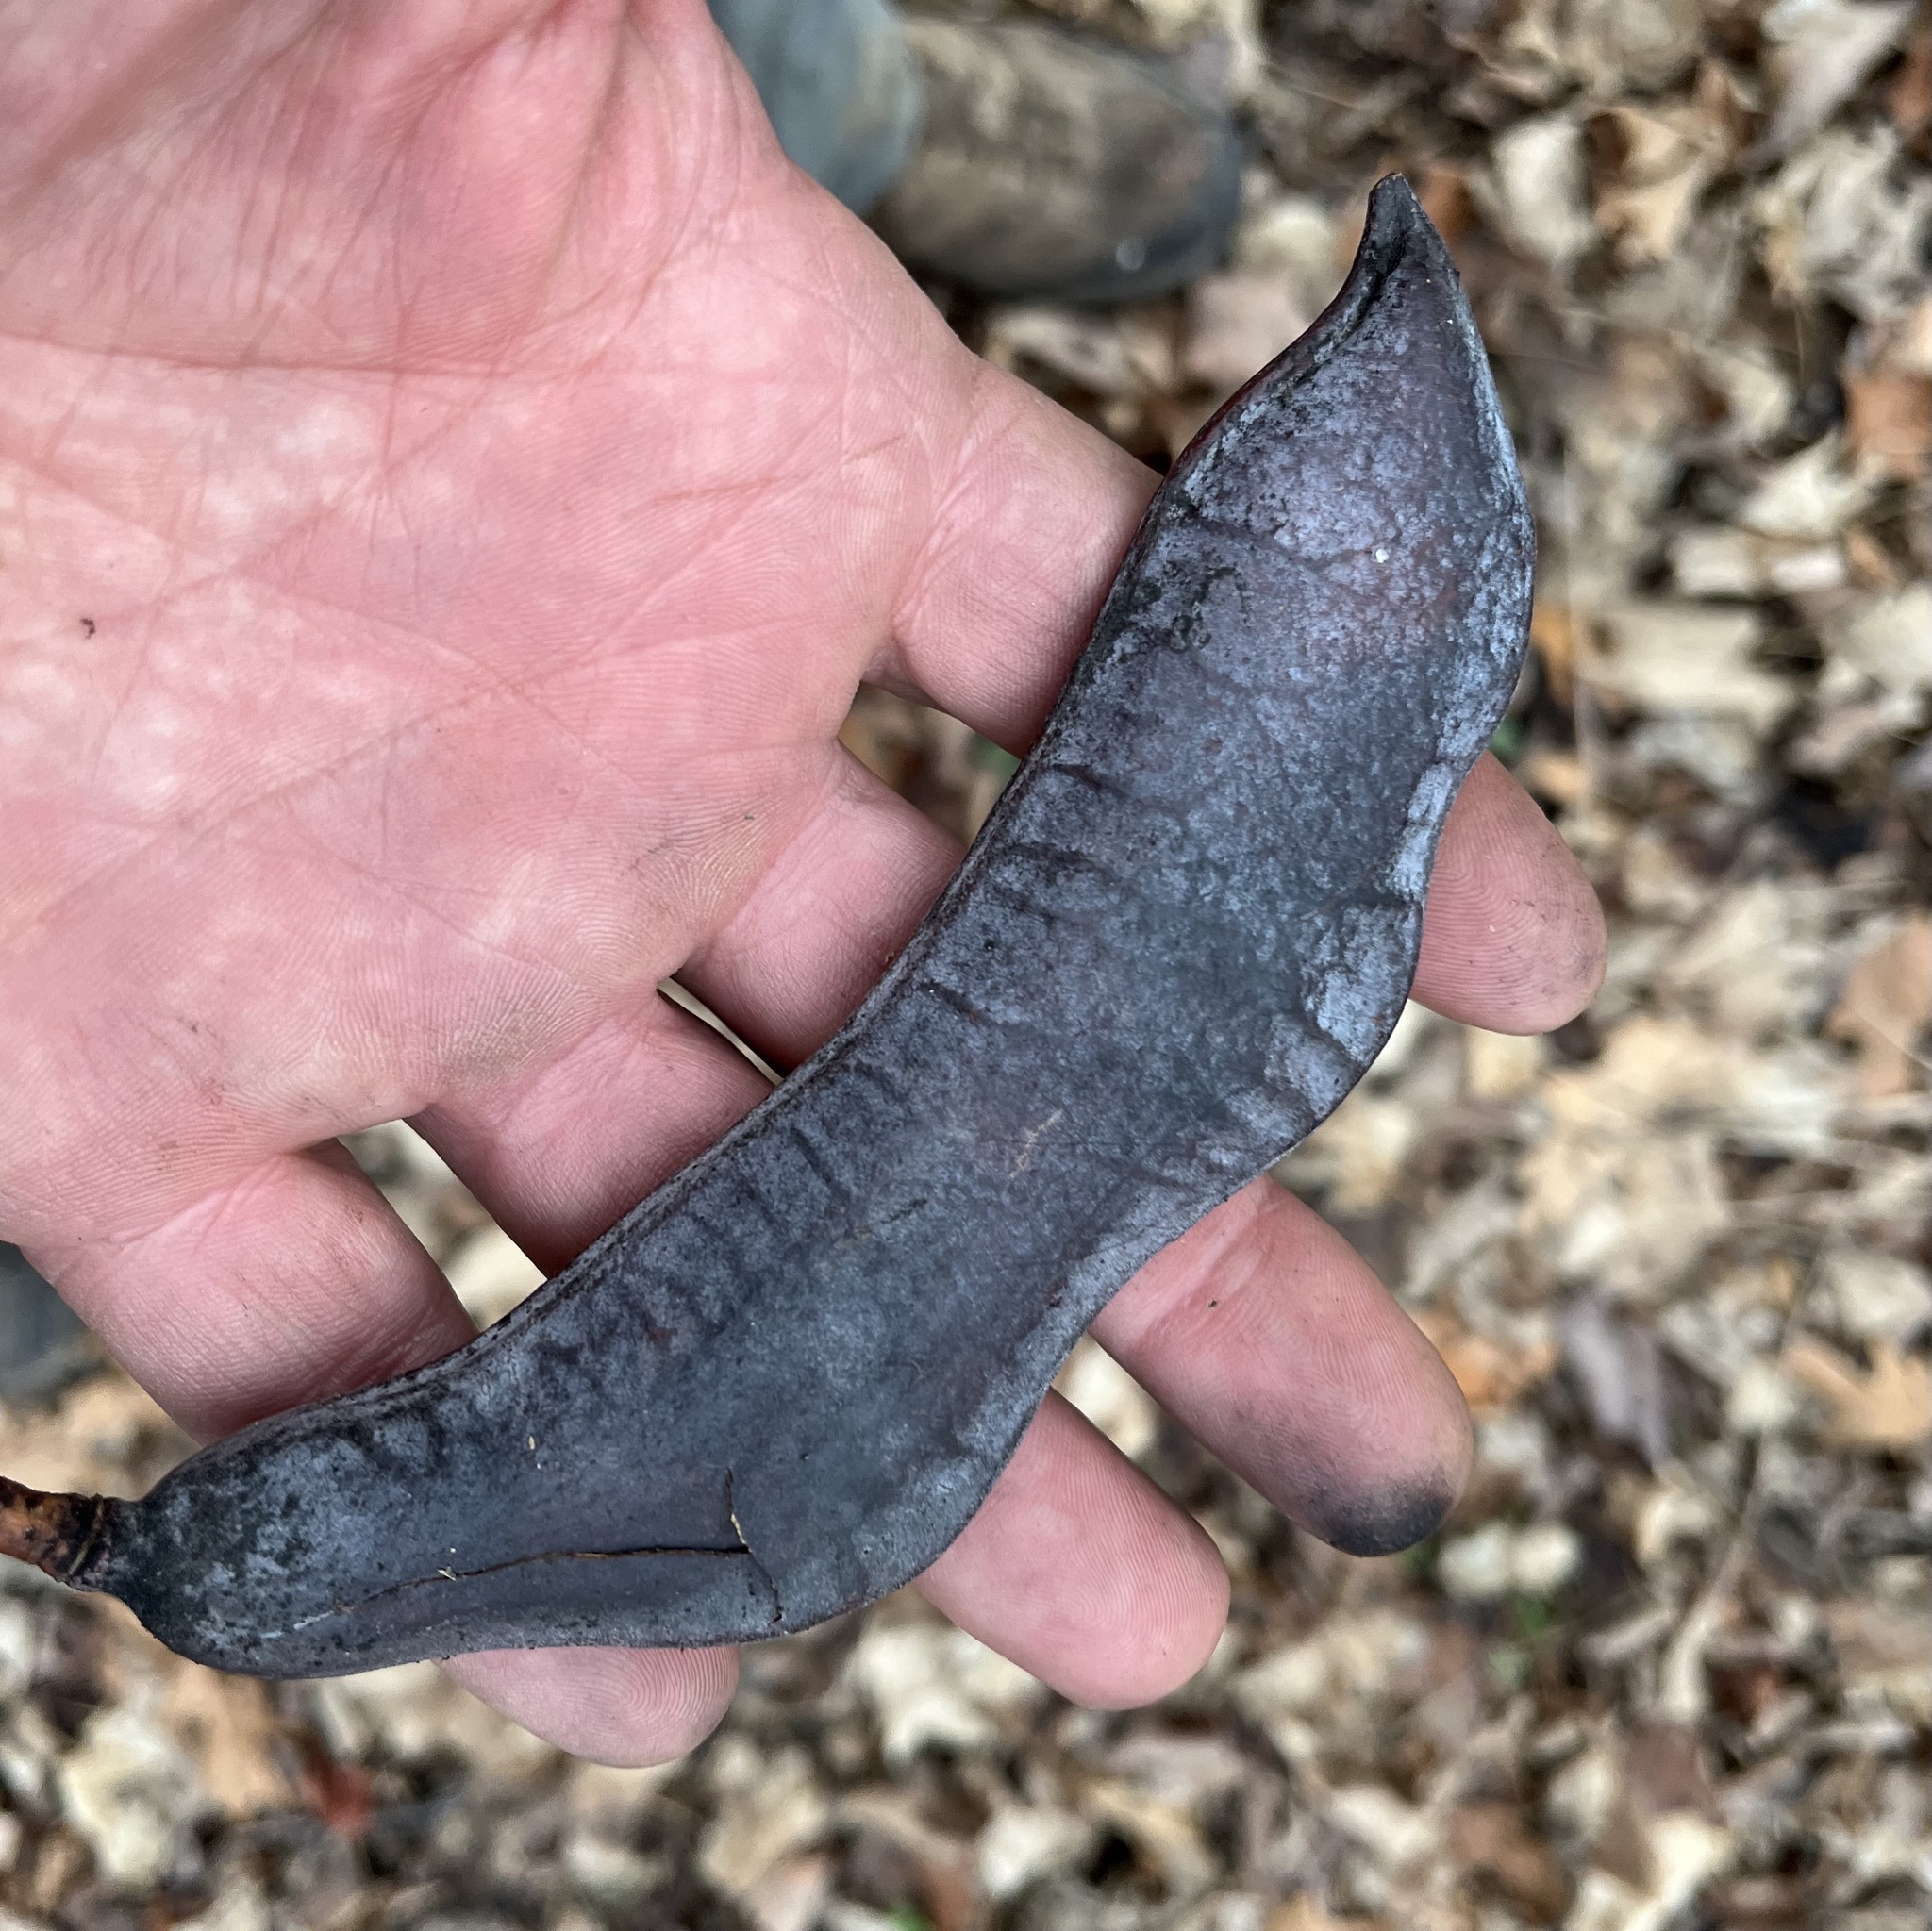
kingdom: Plantae
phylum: Tracheophyta
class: Magnoliopsida
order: Fabales
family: Fabaceae
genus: Gymnocladus
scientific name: Gymnocladus dioicus
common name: Kentucky coffee-tree
